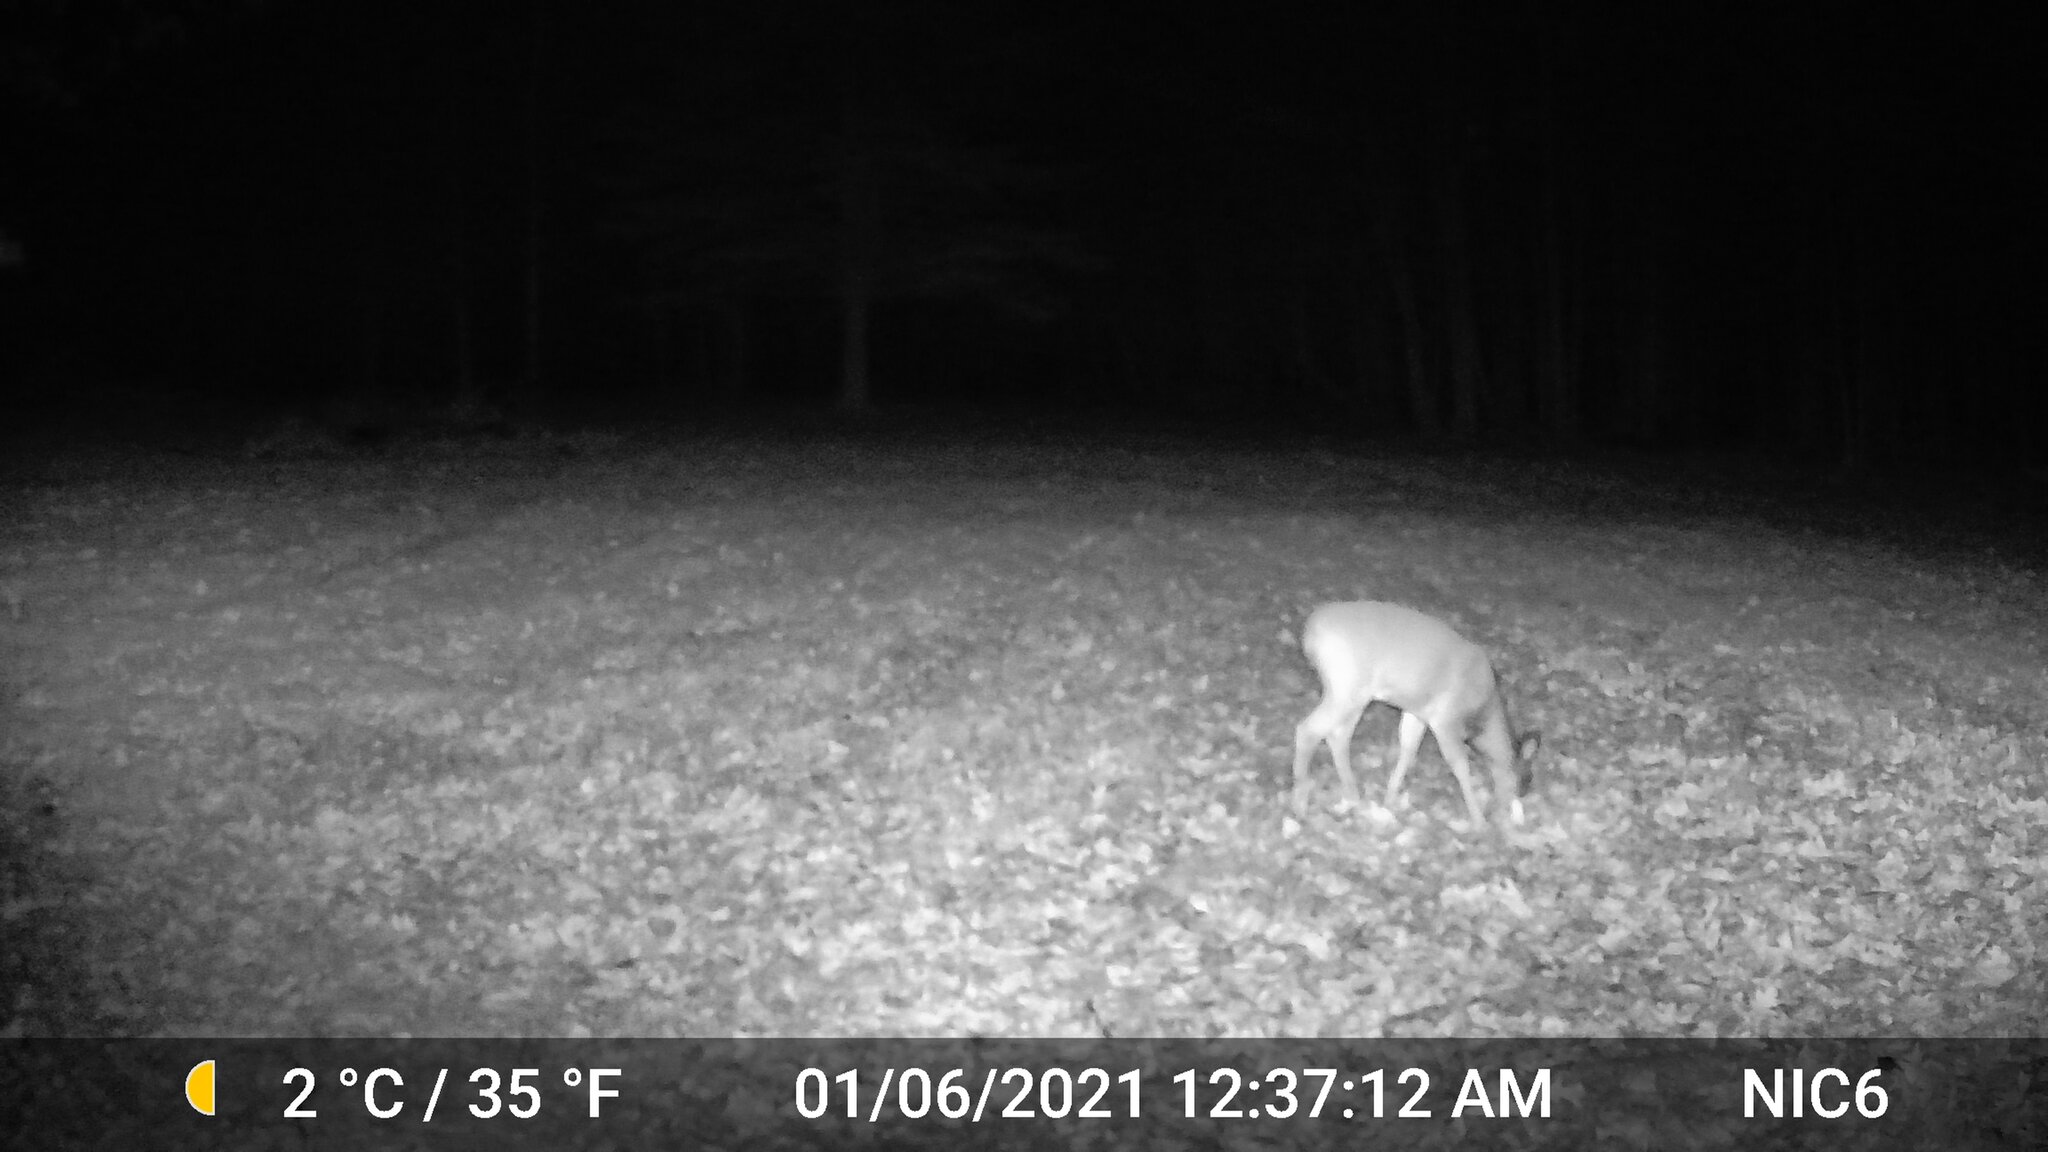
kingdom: Animalia
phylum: Chordata
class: Mammalia
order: Artiodactyla
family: Cervidae
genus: Odocoileus
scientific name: Odocoileus virginianus
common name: White-tailed deer
